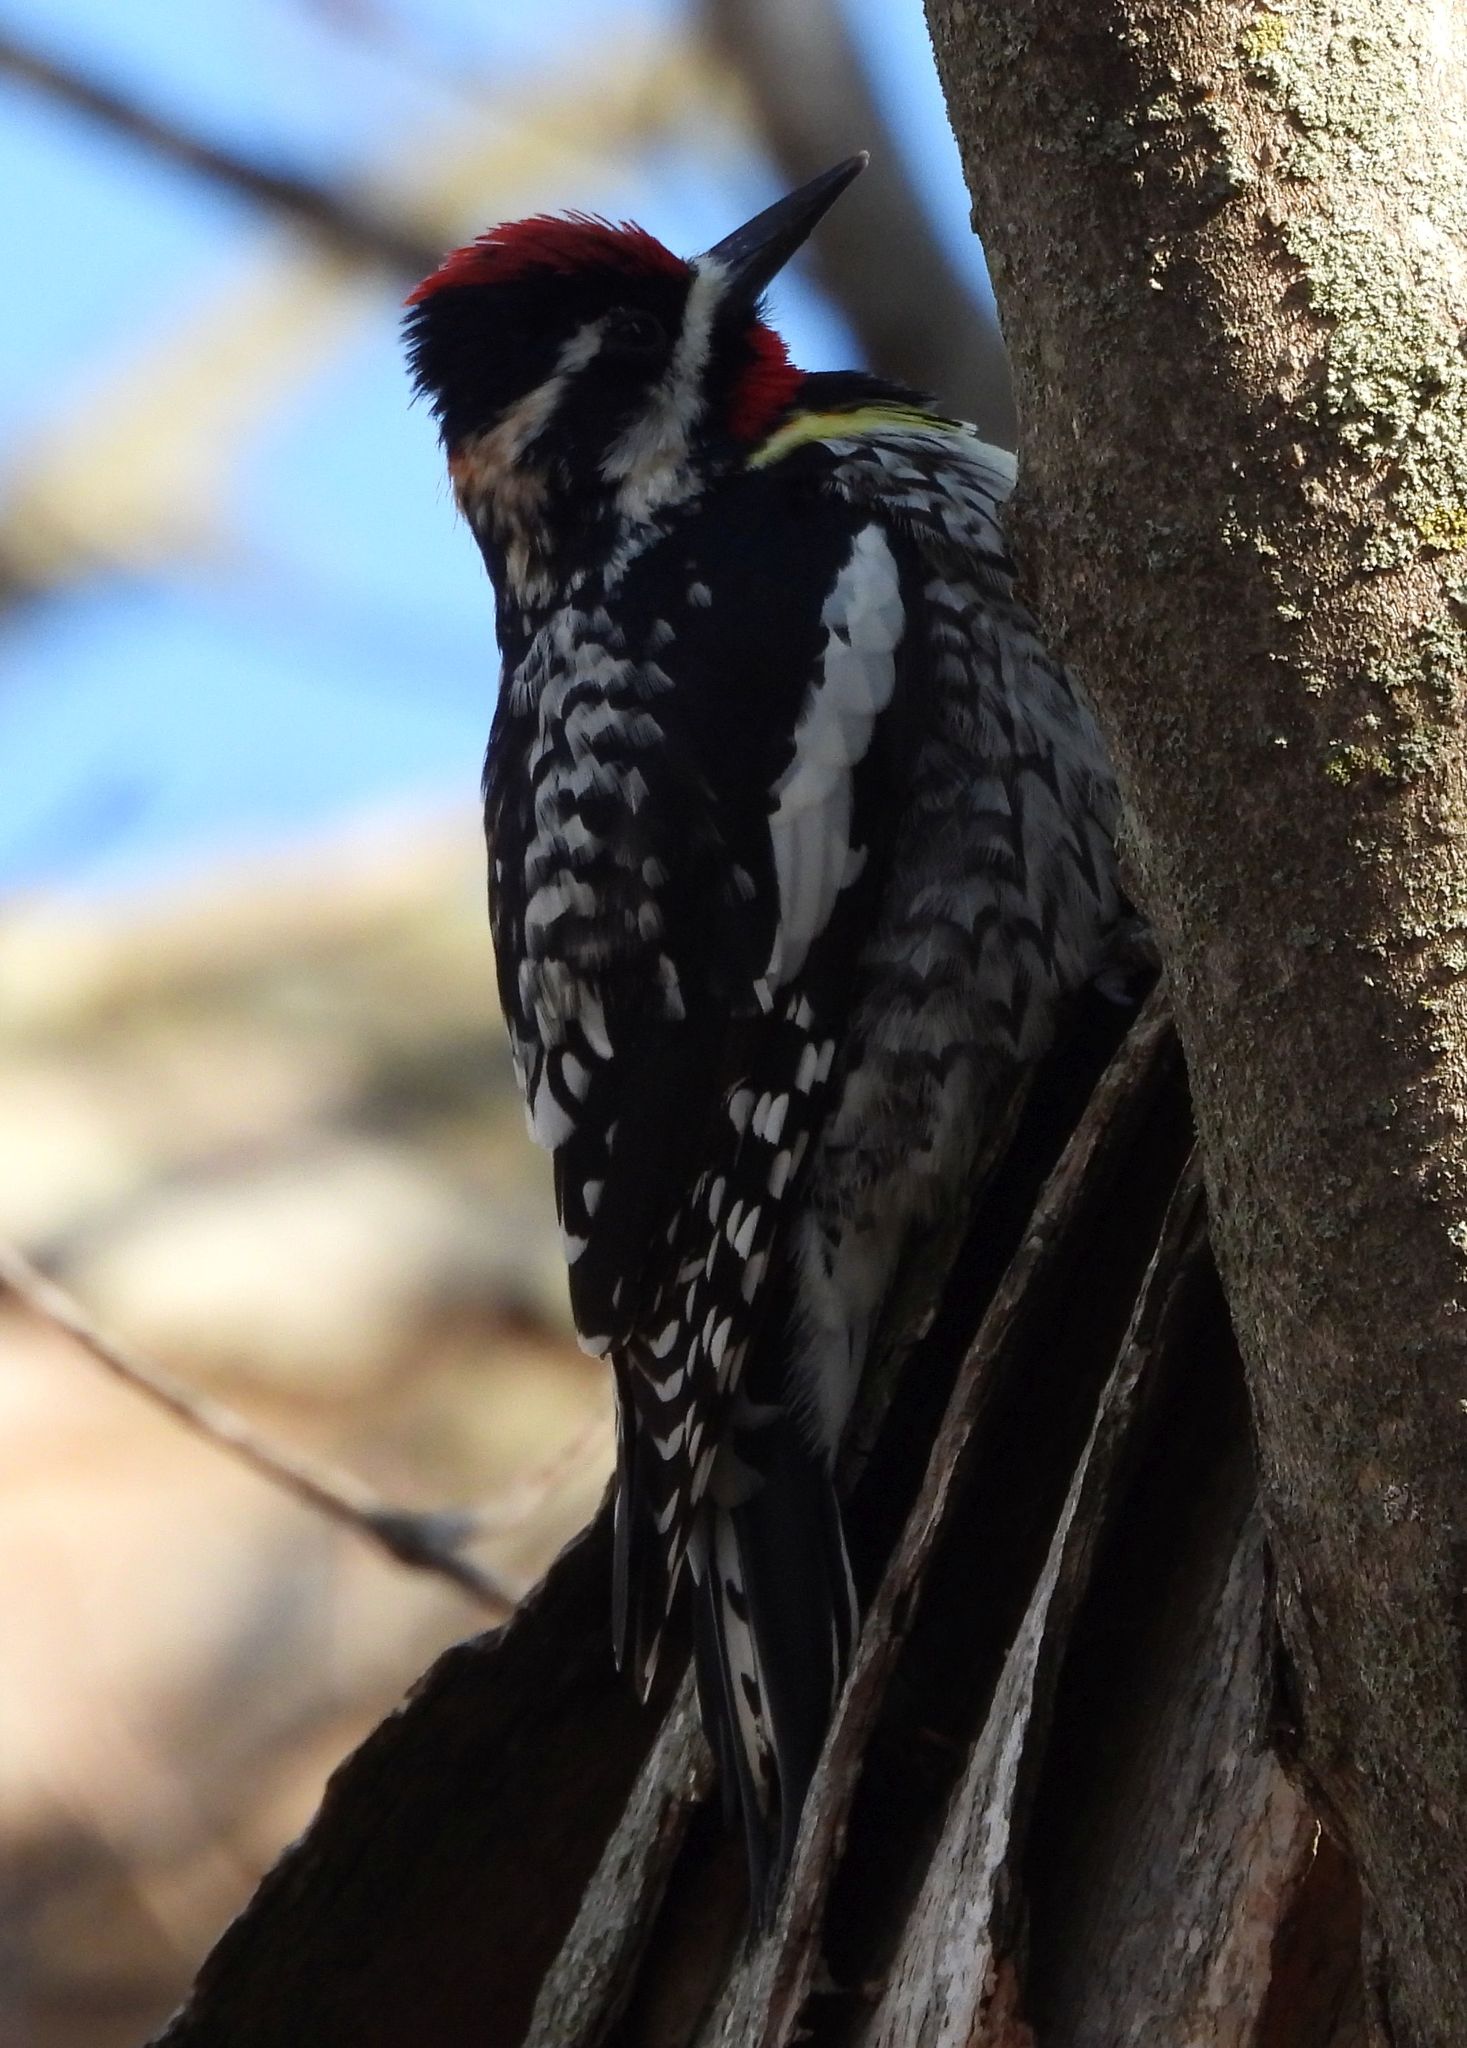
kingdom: Animalia
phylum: Chordata
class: Aves
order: Piciformes
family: Picidae
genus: Sphyrapicus
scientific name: Sphyrapicus varius
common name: Yellow-bellied sapsucker
